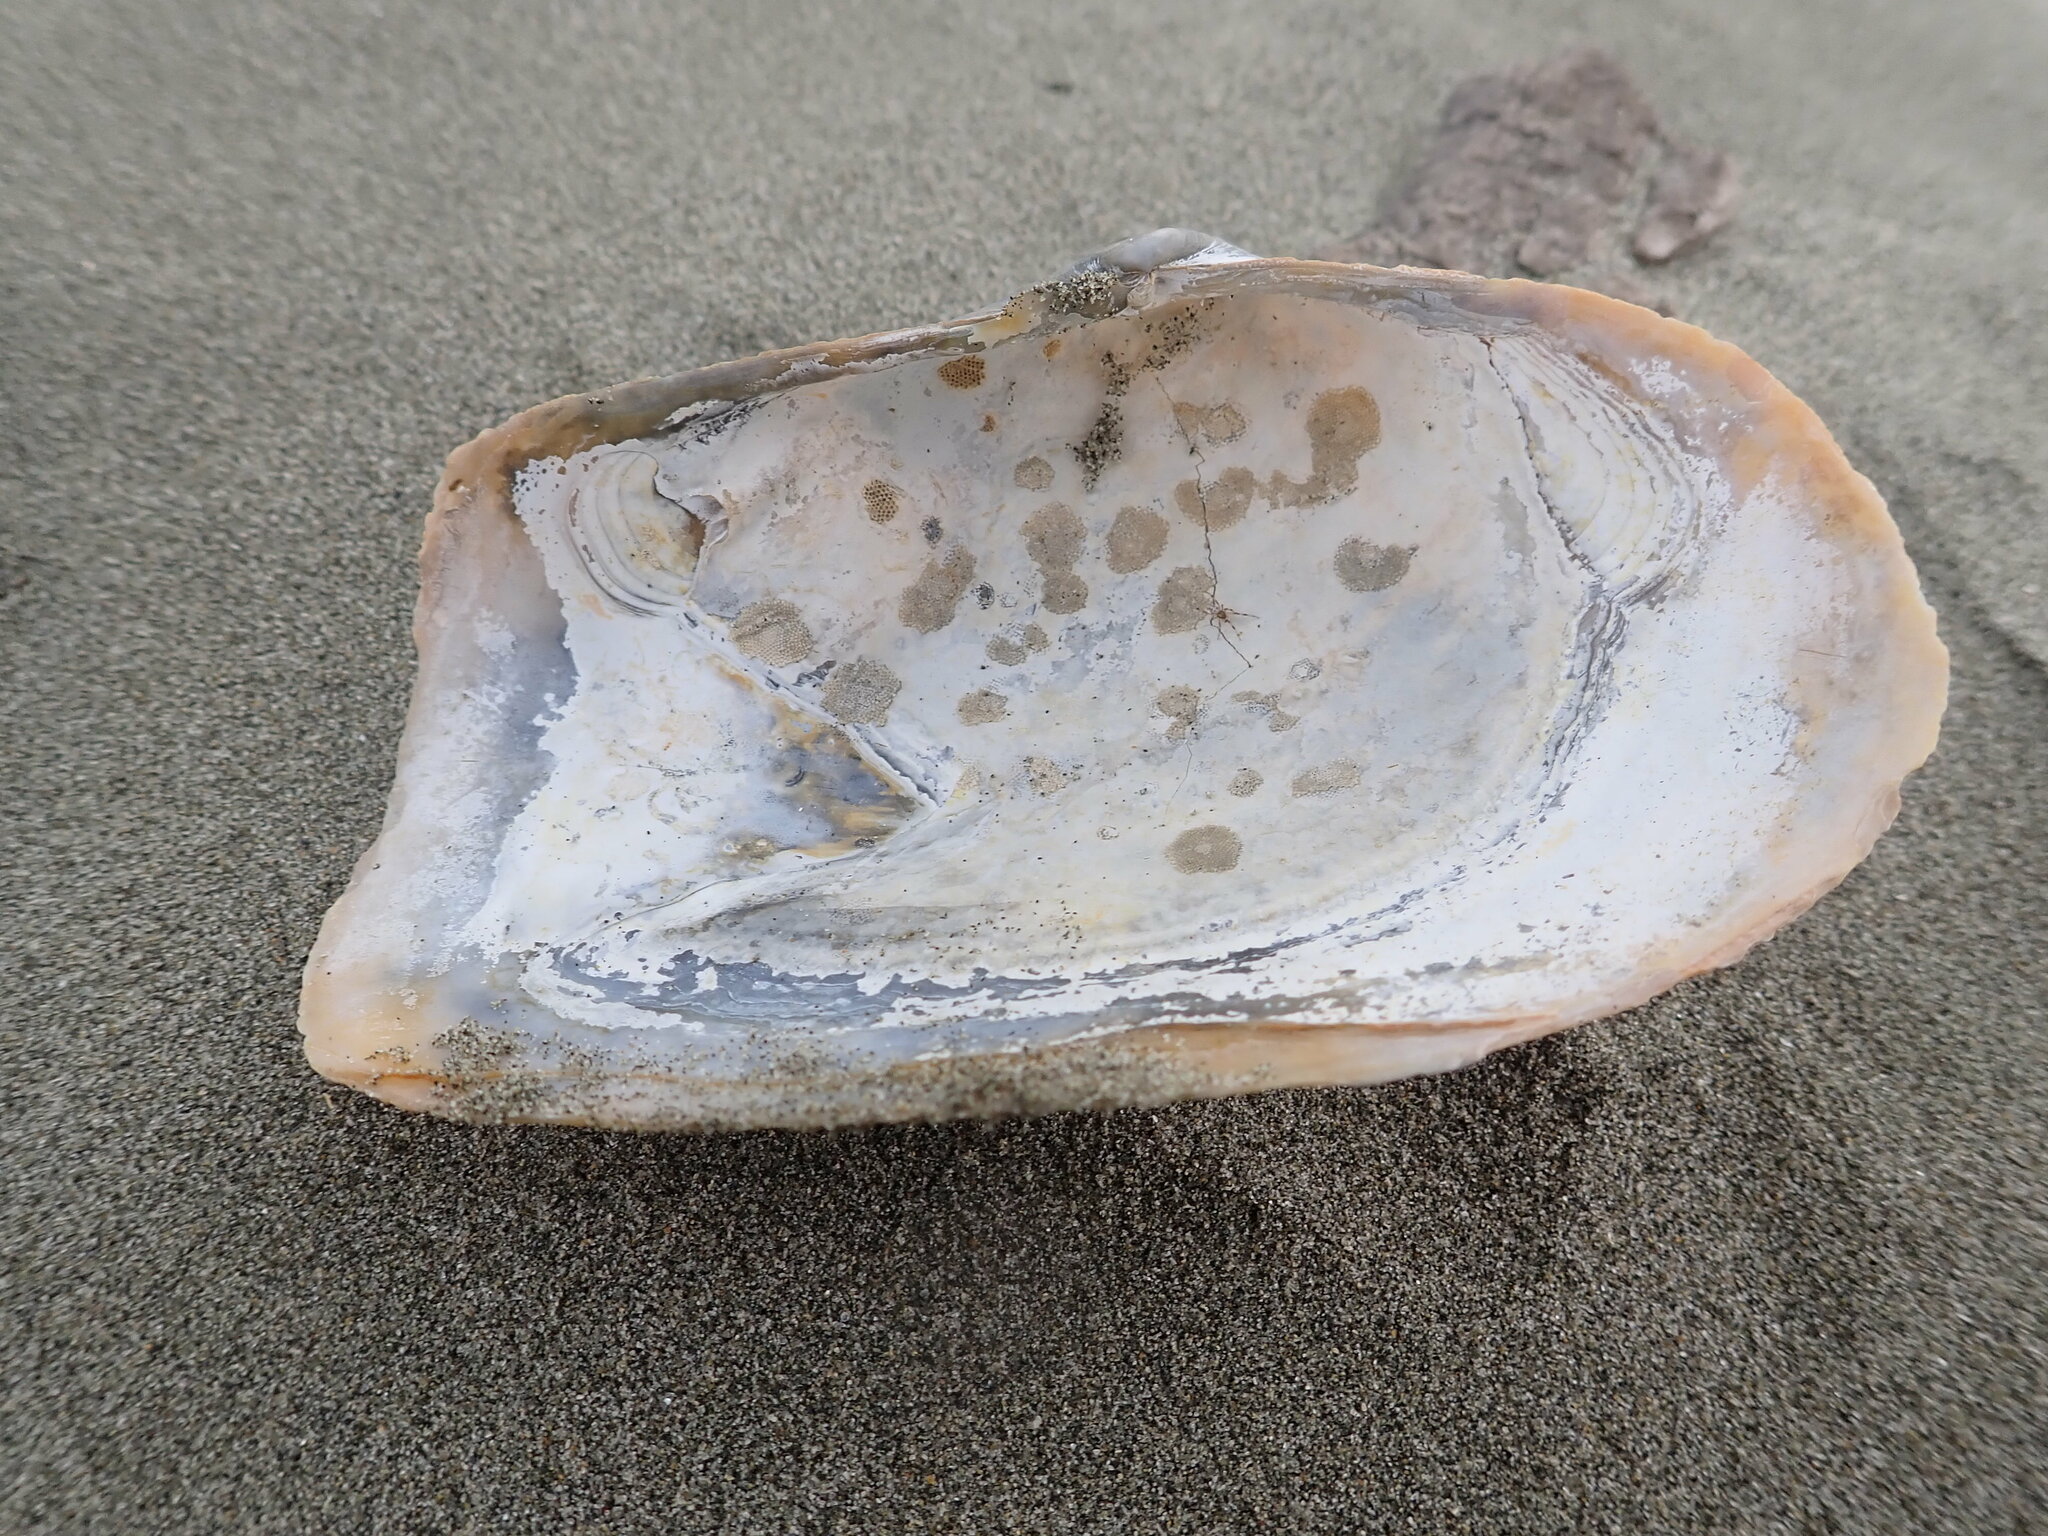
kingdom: Animalia
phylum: Mollusca
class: Bivalvia
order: Adapedonta
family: Hiatellidae
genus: Panopea
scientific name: Panopea zelandica
